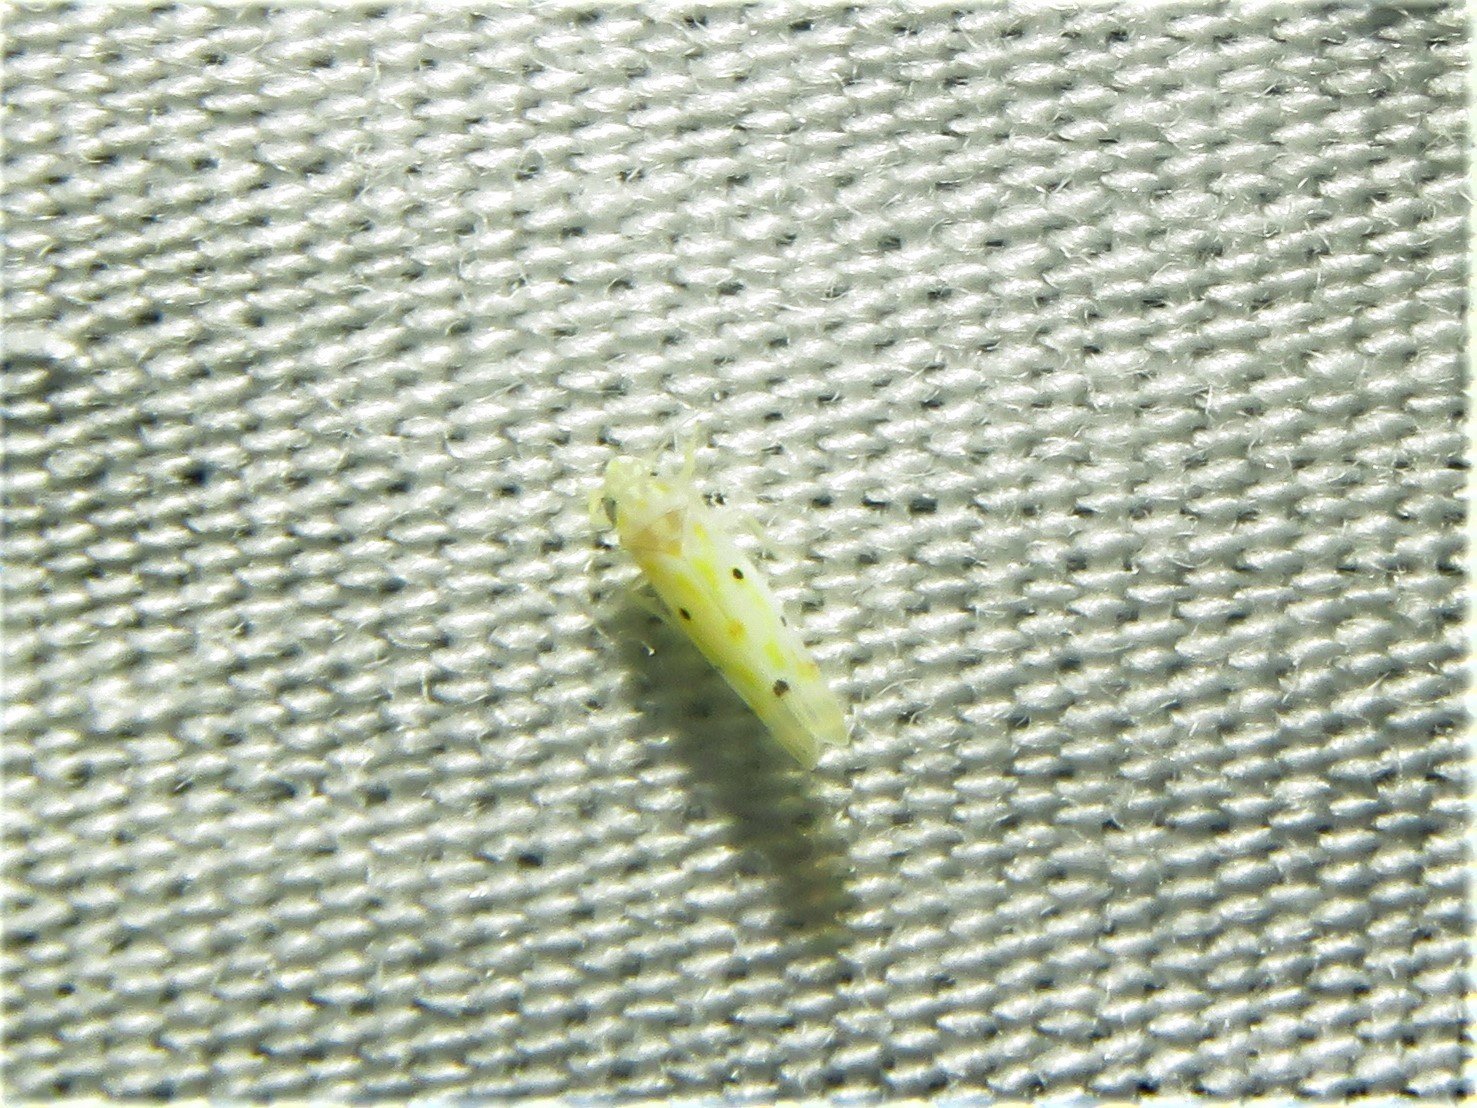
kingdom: Animalia
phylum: Arthropoda
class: Insecta
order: Hemiptera
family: Cicadellidae
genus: Illinigina
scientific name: Illinigina illinoiensis
